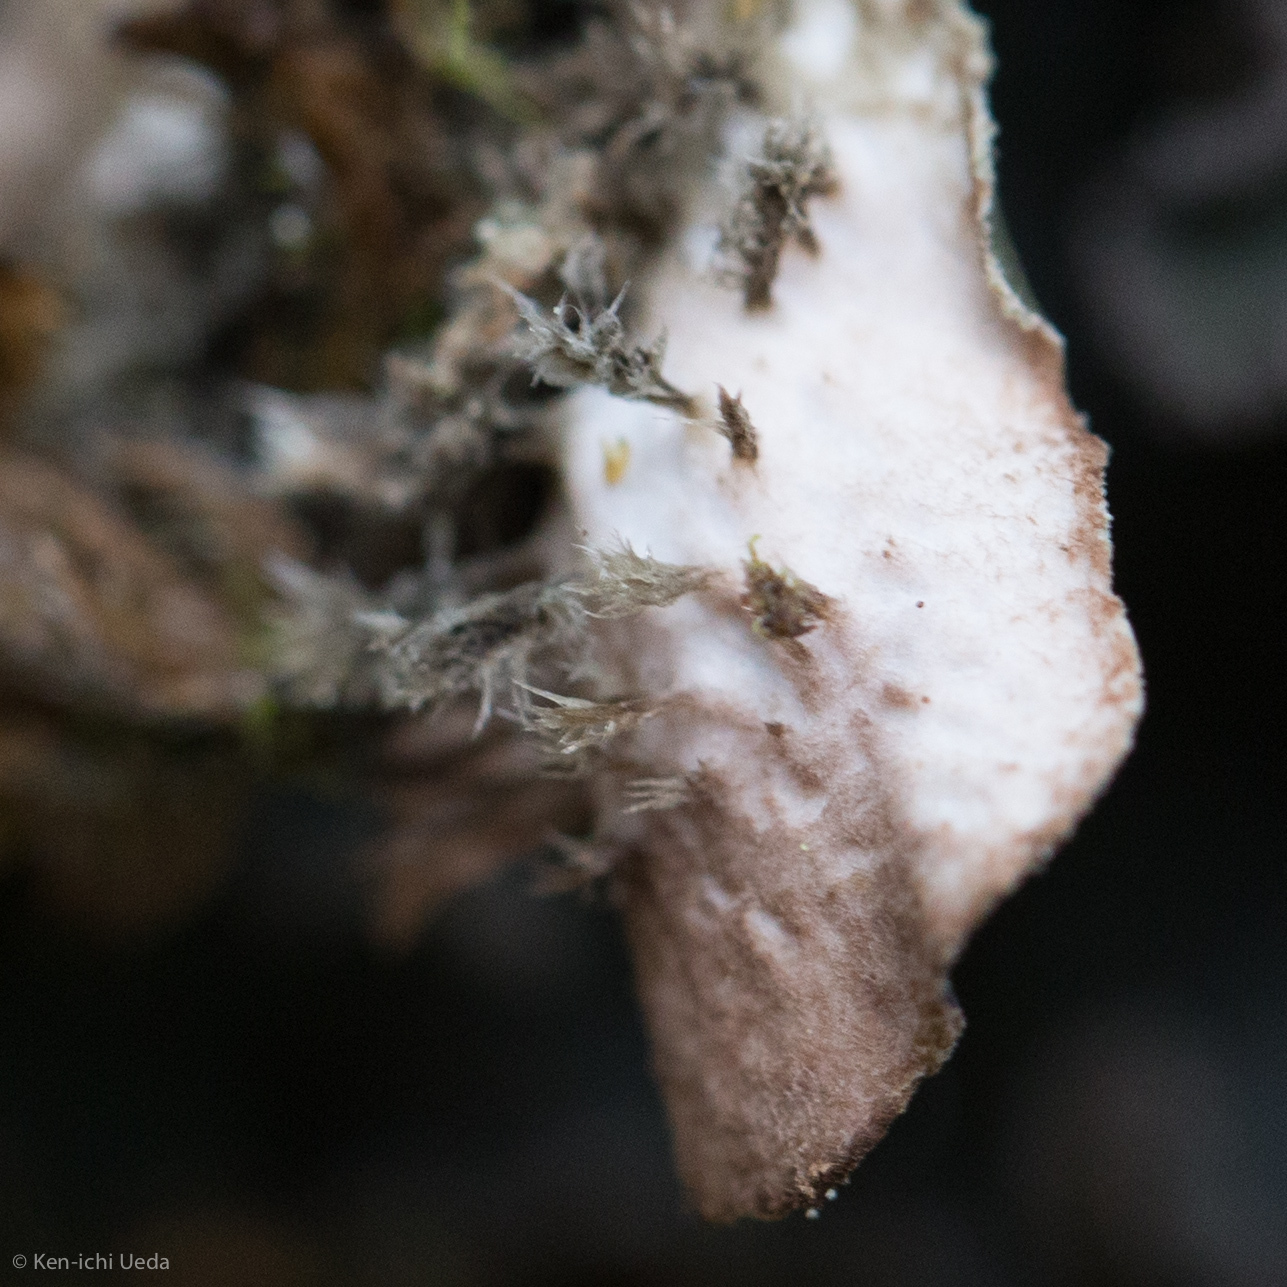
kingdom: Fungi
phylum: Ascomycota
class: Lecanoromycetes
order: Peltigerales
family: Peltigeraceae
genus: Peltigera
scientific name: Peltigera collina
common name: Gritty tree pelt lichen
